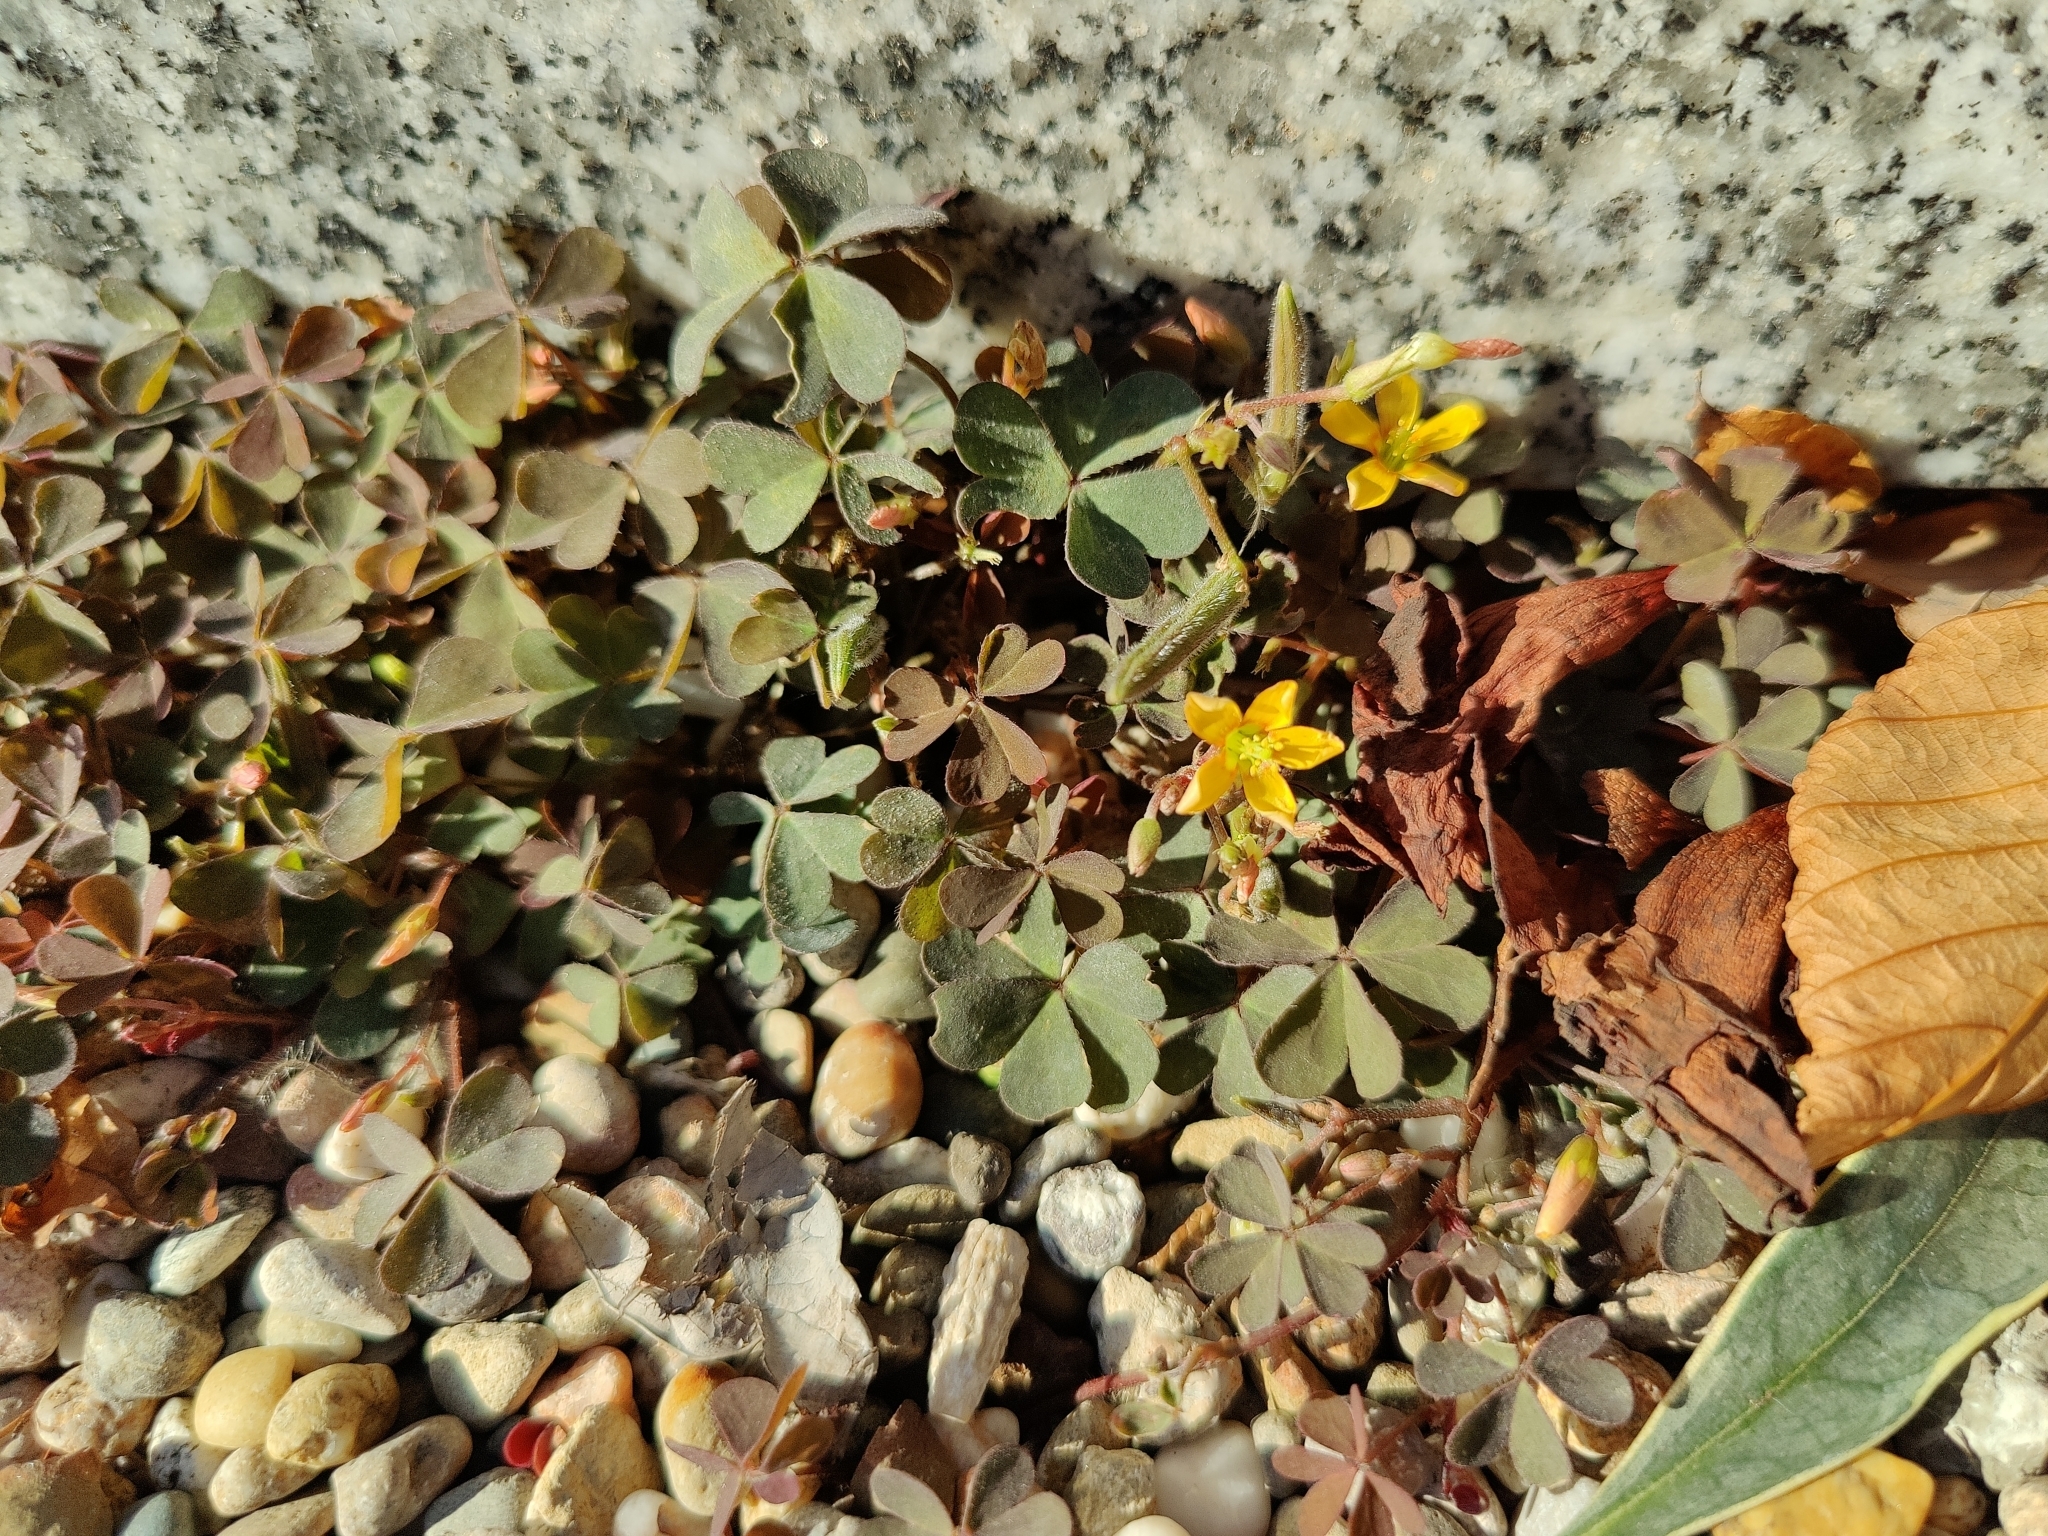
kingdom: Plantae
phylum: Tracheophyta
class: Magnoliopsida
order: Oxalidales
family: Oxalidaceae
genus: Oxalis
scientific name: Oxalis corniculata
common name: Procumbent yellow-sorrel
